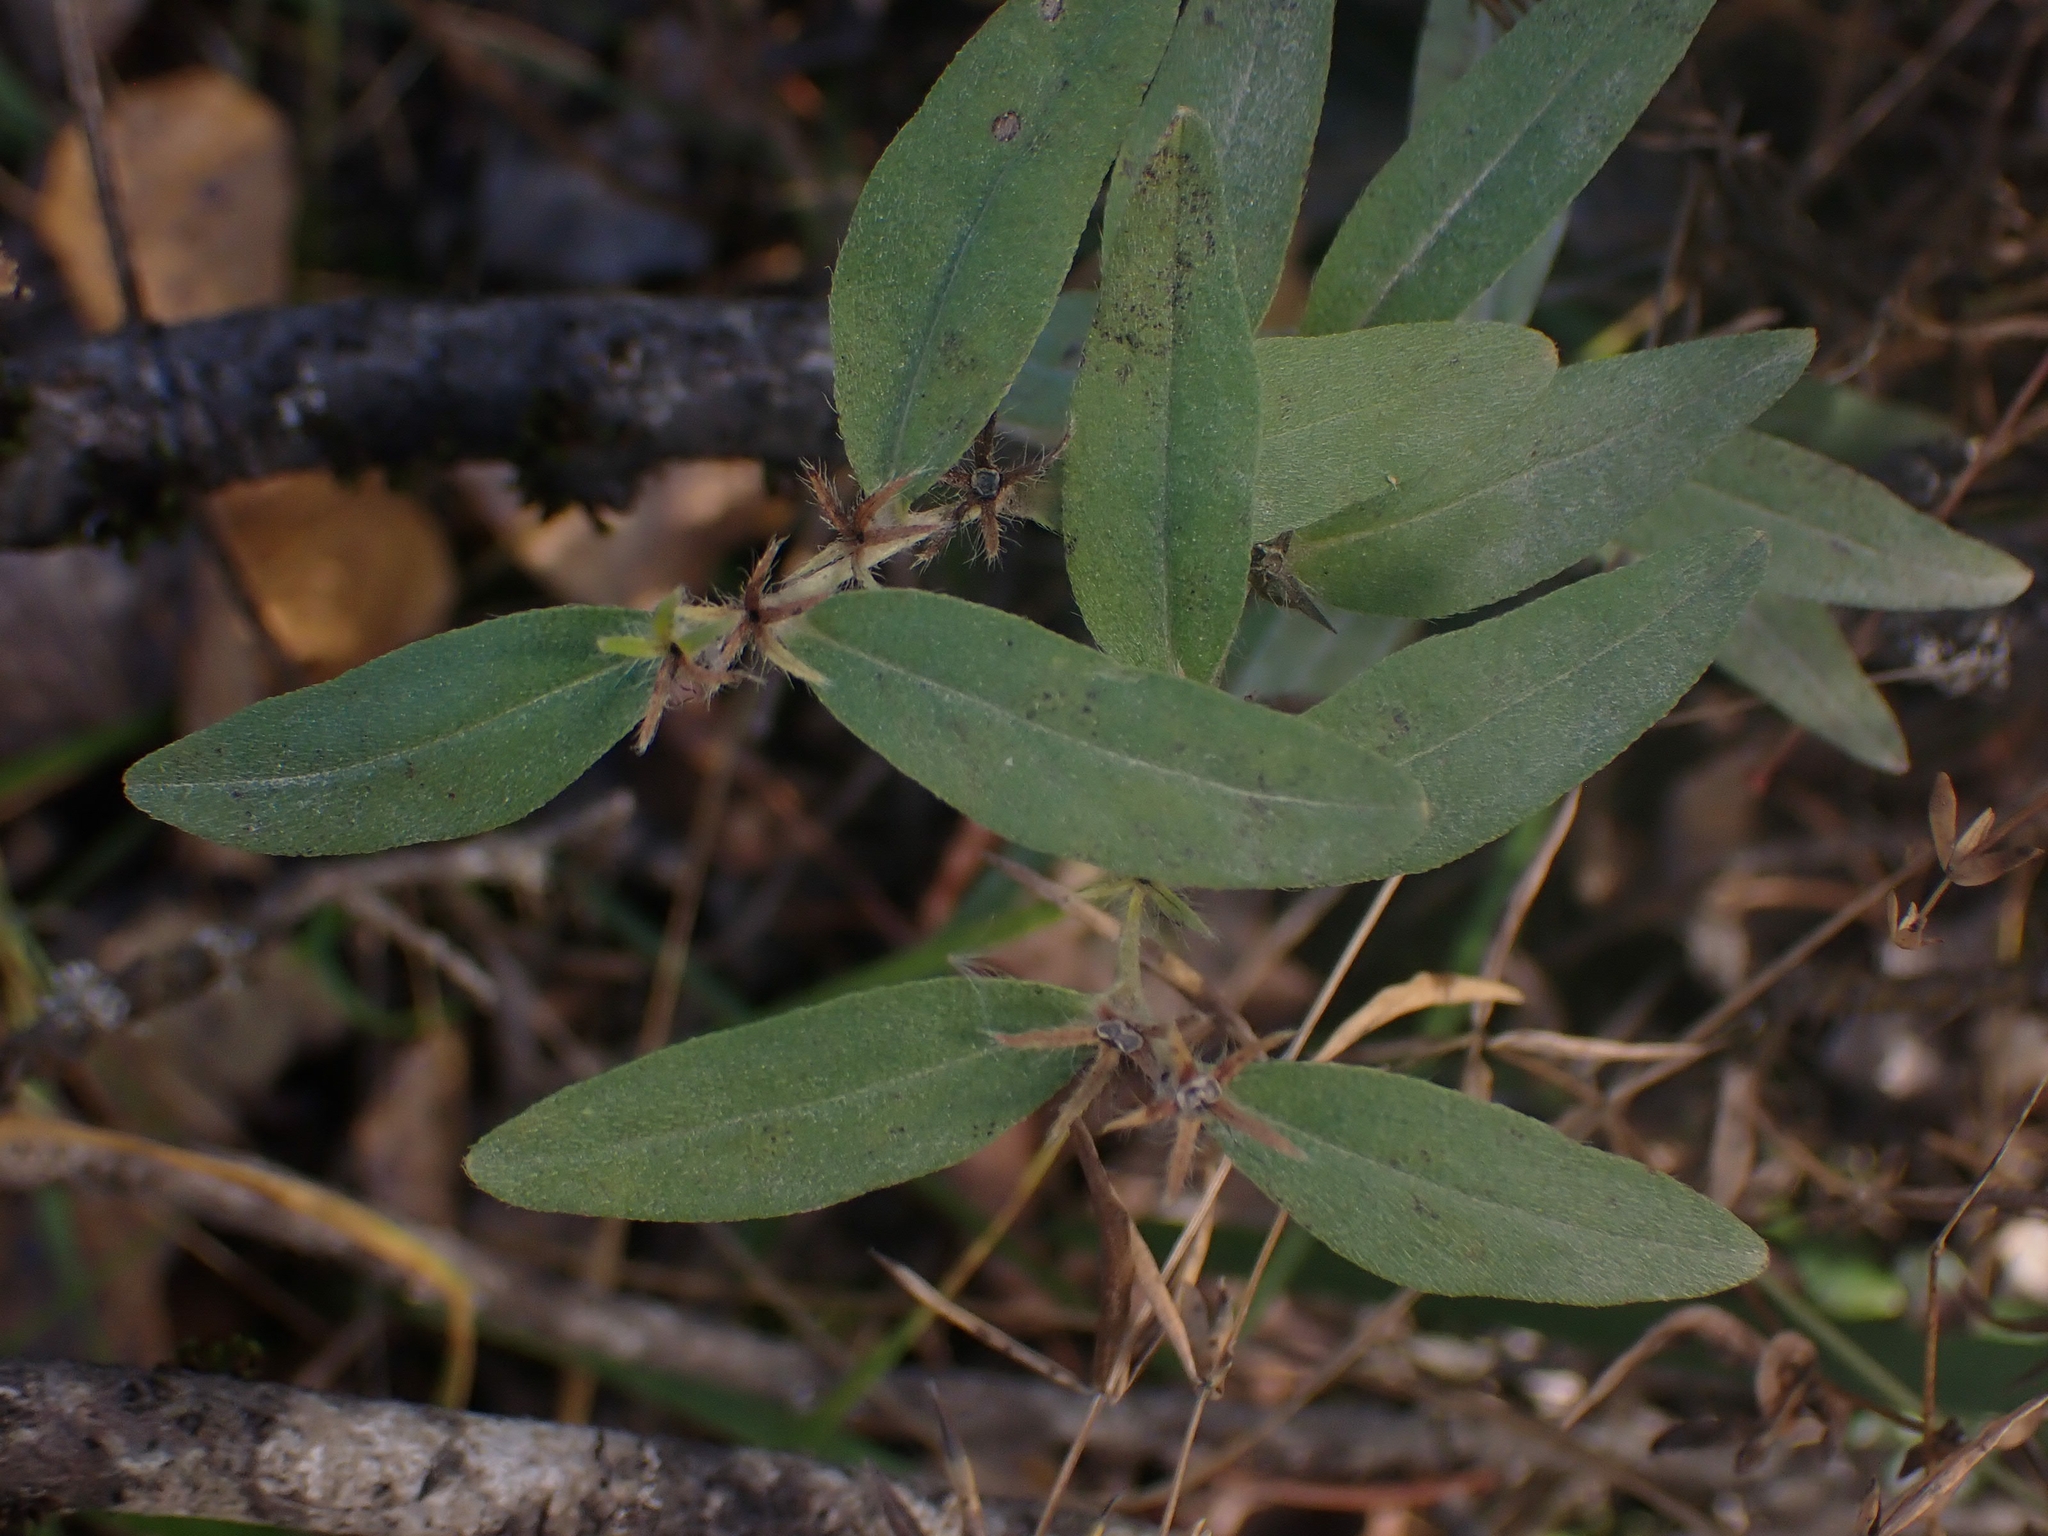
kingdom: Plantae
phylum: Tracheophyta
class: Magnoliopsida
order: Boraginales
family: Boraginaceae
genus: Lithospermum
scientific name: Lithospermum canescens
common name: Hoary puccoon
